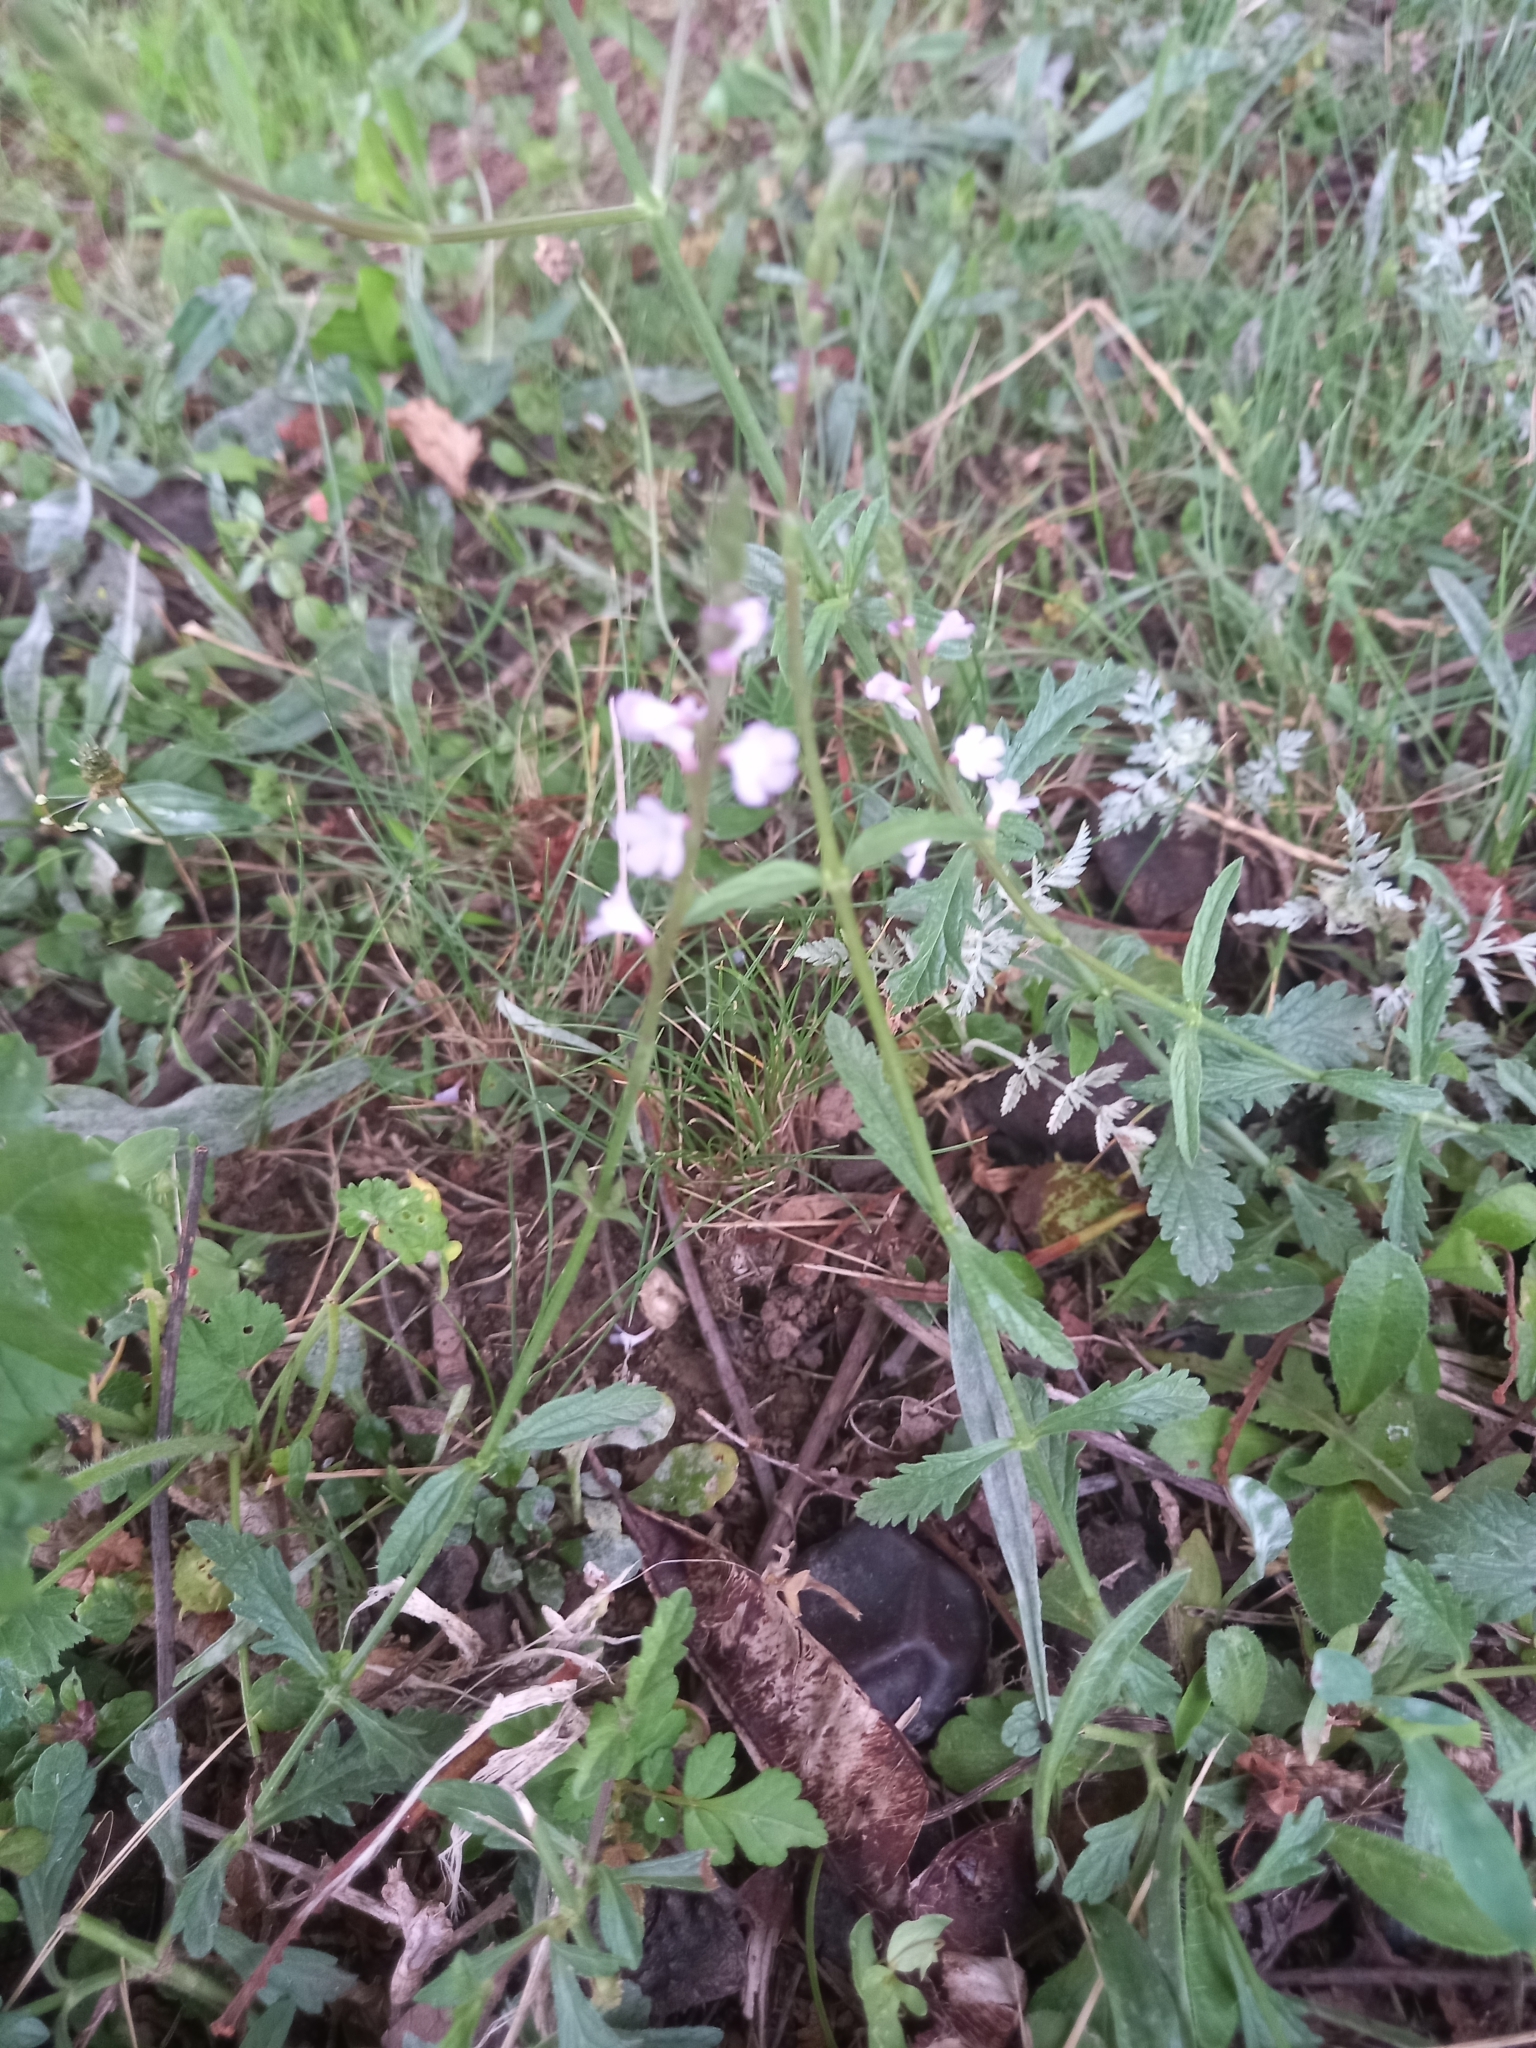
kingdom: Plantae
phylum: Tracheophyta
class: Magnoliopsida
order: Lamiales
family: Verbenaceae
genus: Verbena
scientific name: Verbena officinalis
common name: Vervain
